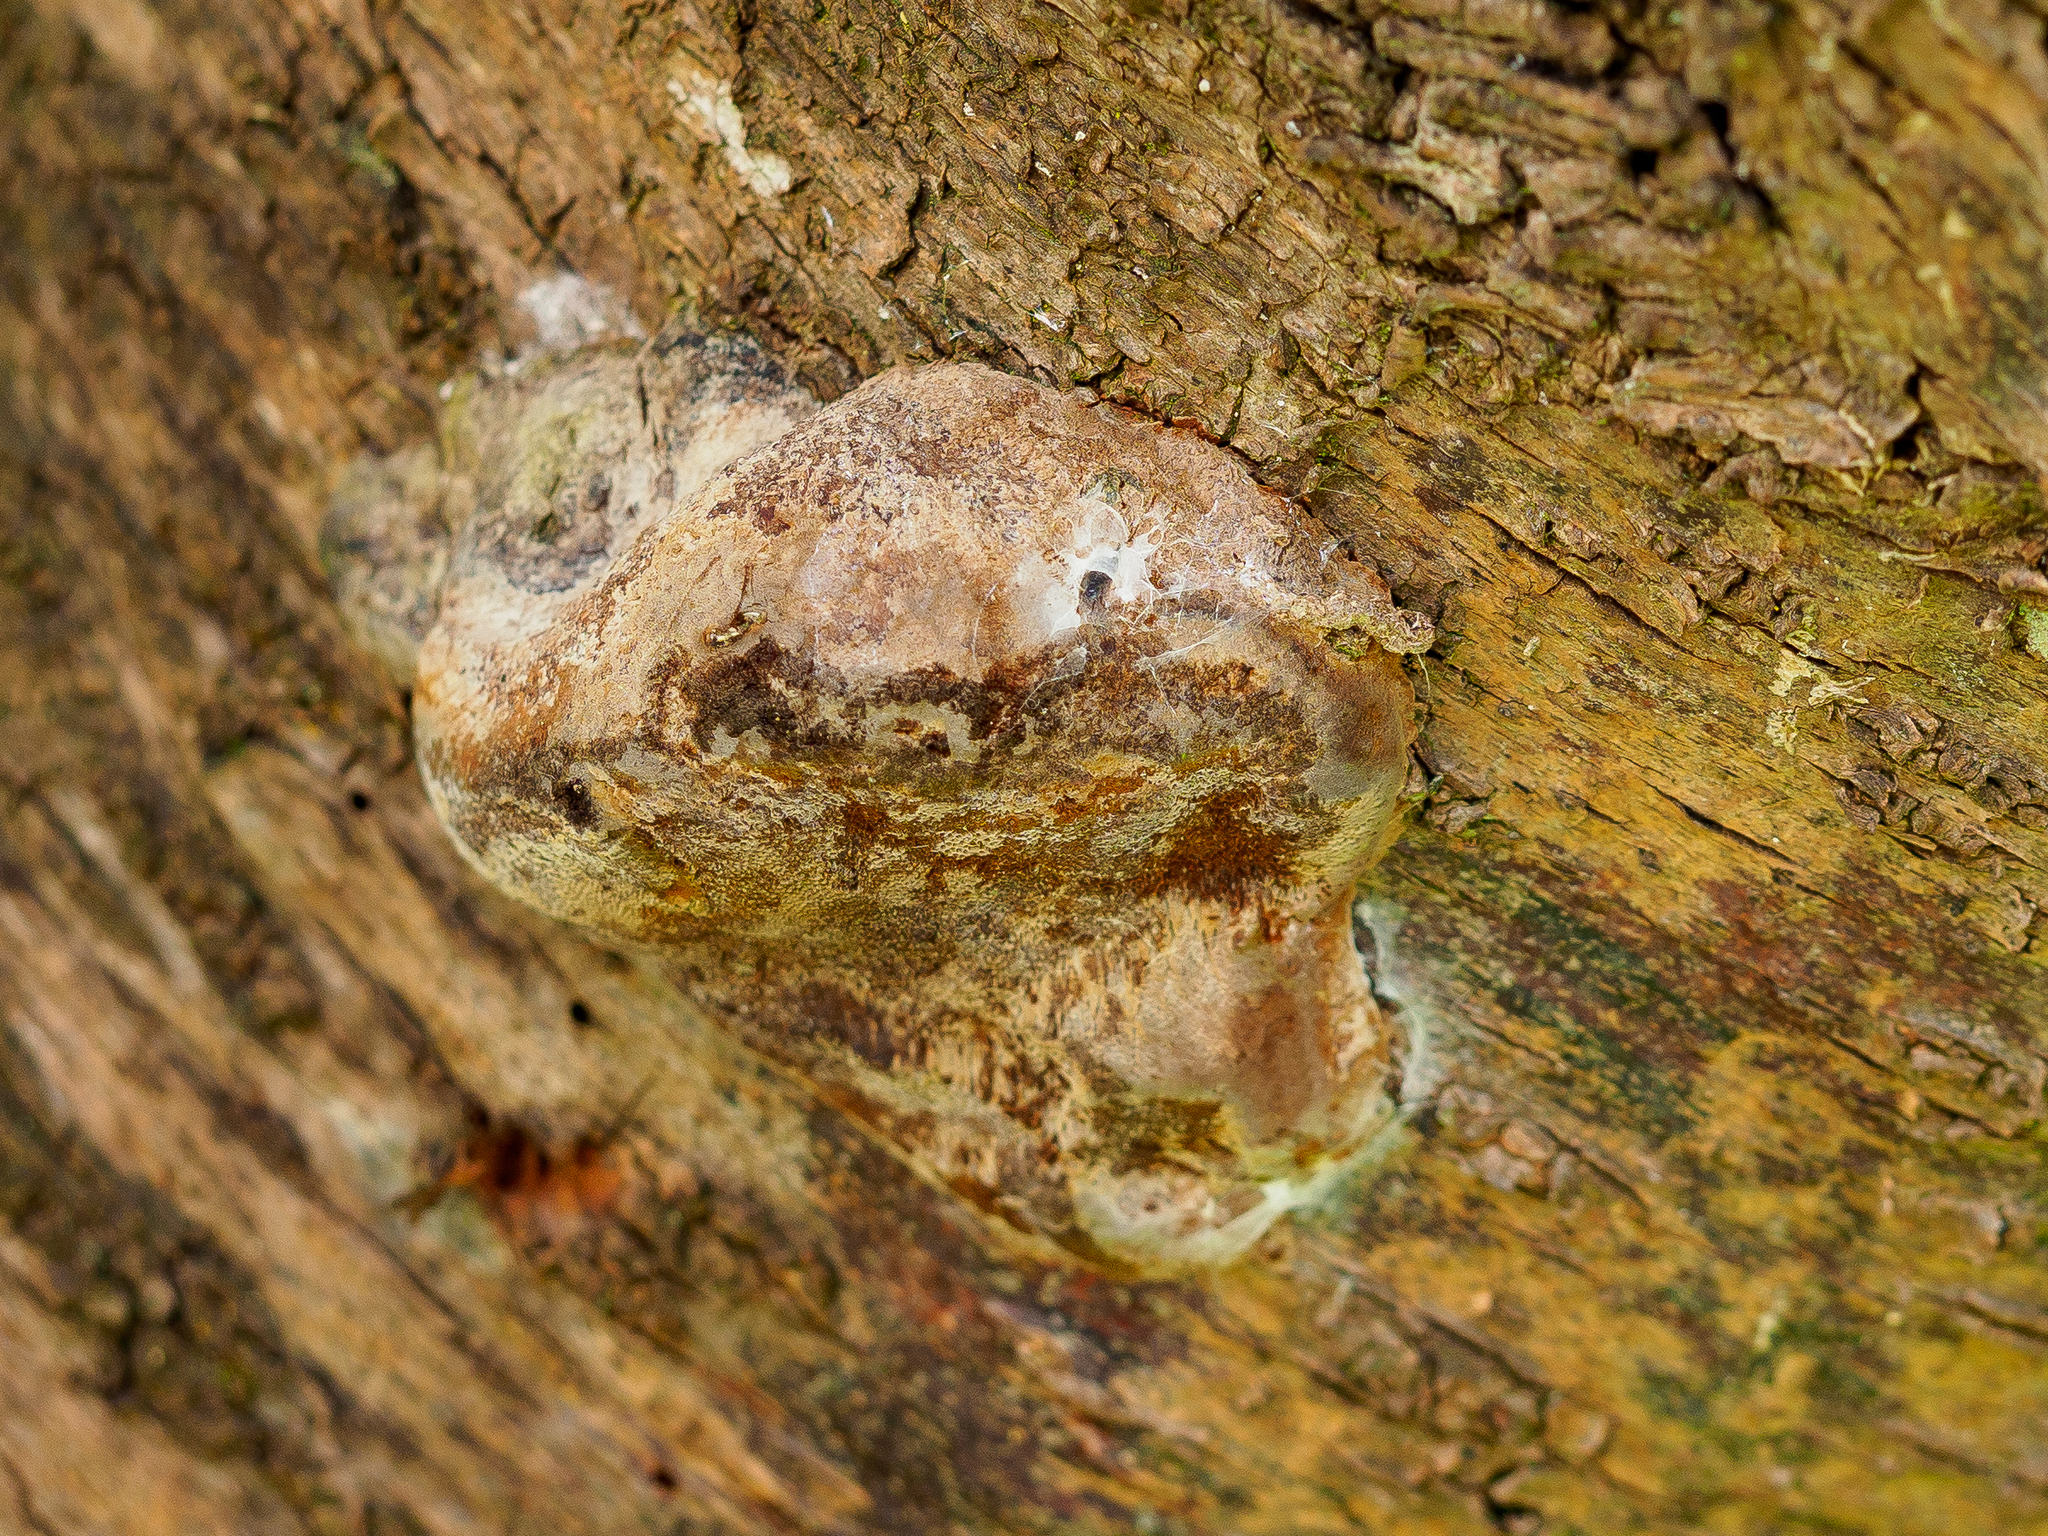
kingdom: Fungi
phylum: Basidiomycota
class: Agaricomycetes
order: Hymenochaetales
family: Hymenochaetaceae
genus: Phellinus
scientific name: Phellinus pomaceus
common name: Cushion bracket
